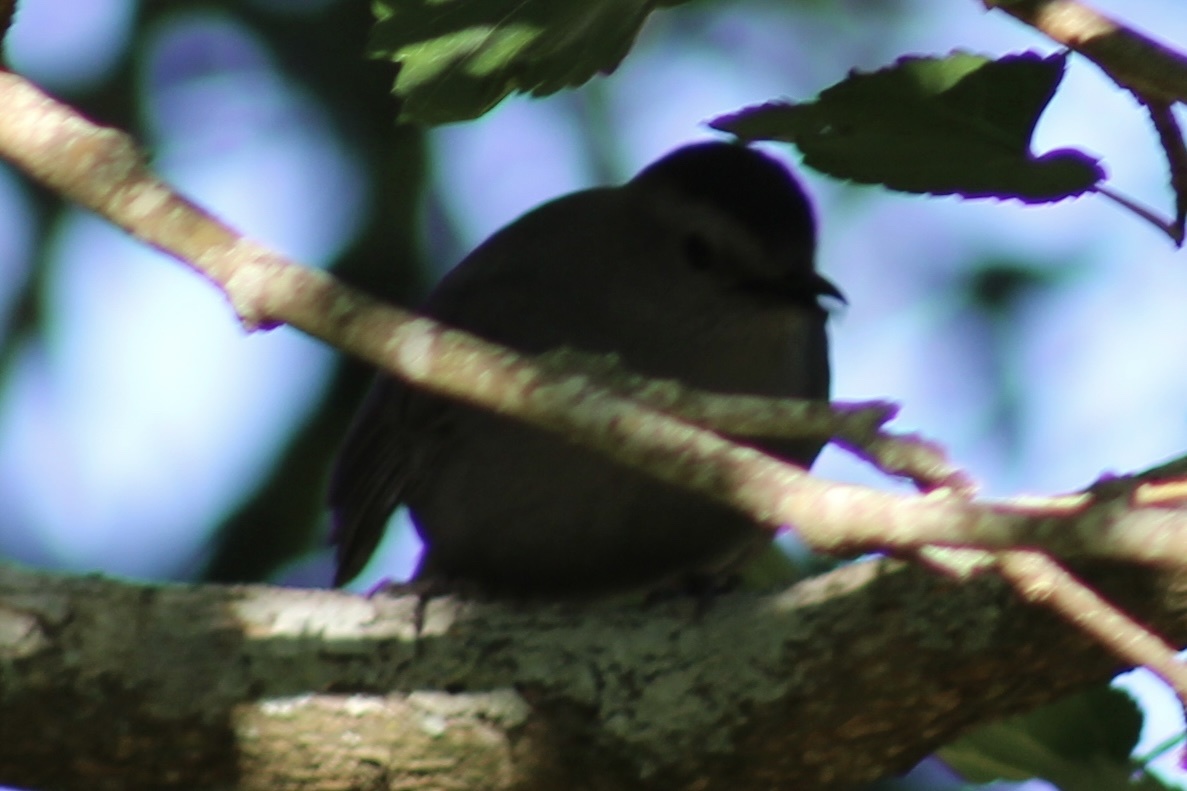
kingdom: Animalia
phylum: Chordata
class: Aves
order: Passeriformes
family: Mimidae
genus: Dumetella
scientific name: Dumetella carolinensis
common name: Gray catbird
